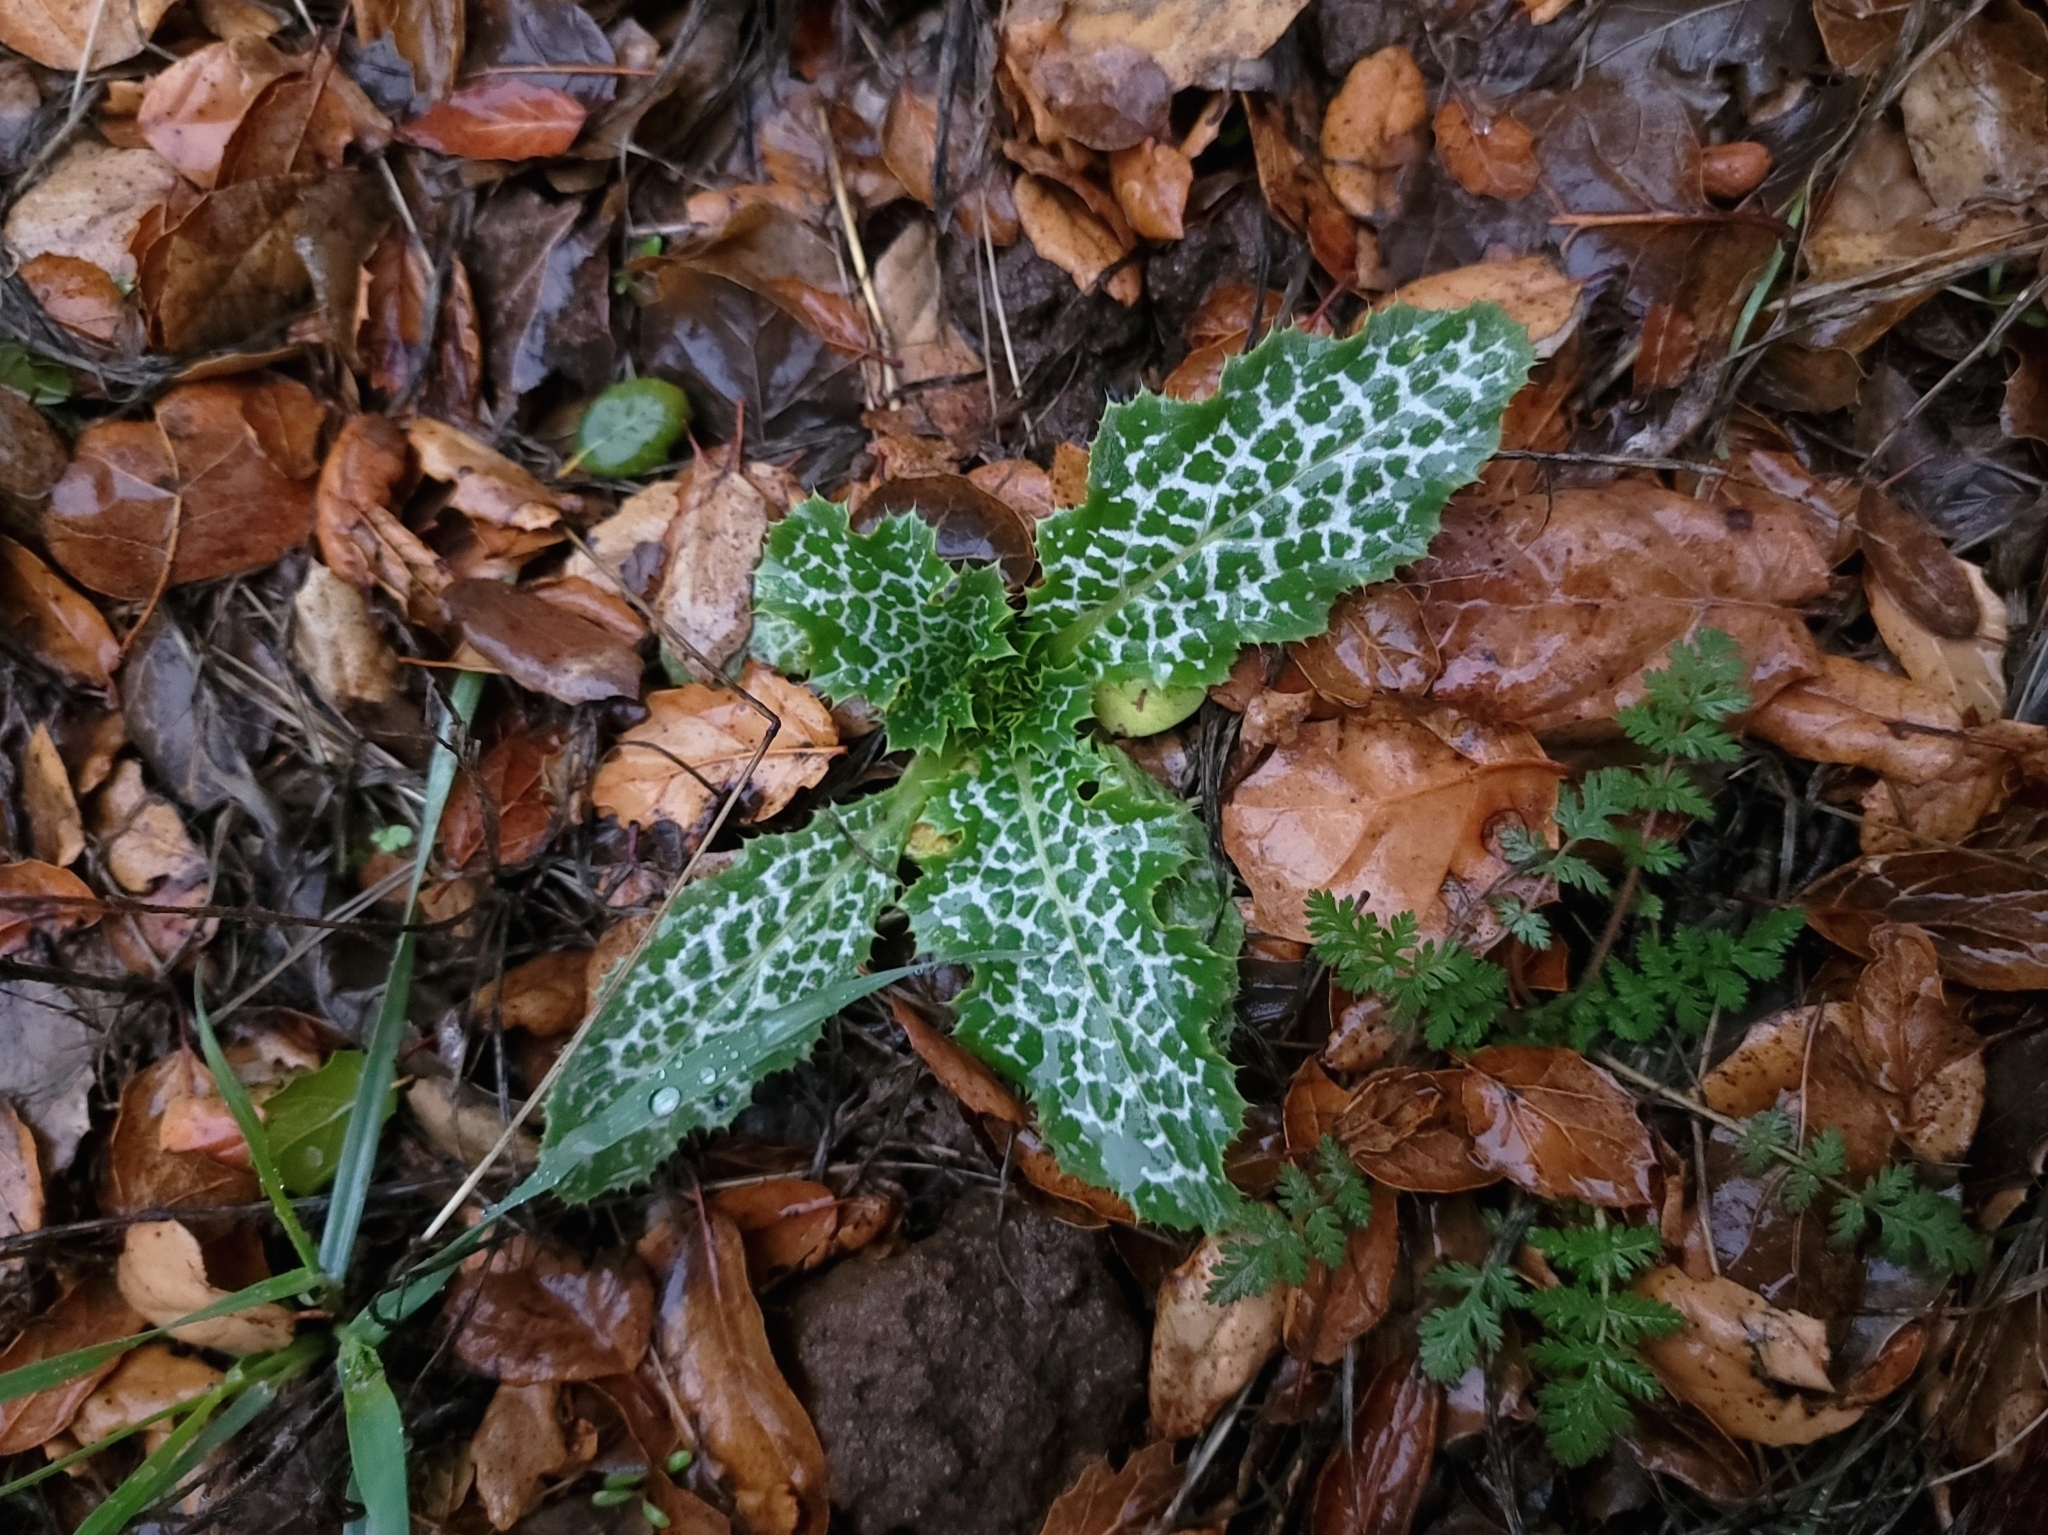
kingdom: Plantae
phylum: Tracheophyta
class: Magnoliopsida
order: Asterales
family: Asteraceae
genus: Silybum
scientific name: Silybum marianum
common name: Milk thistle
